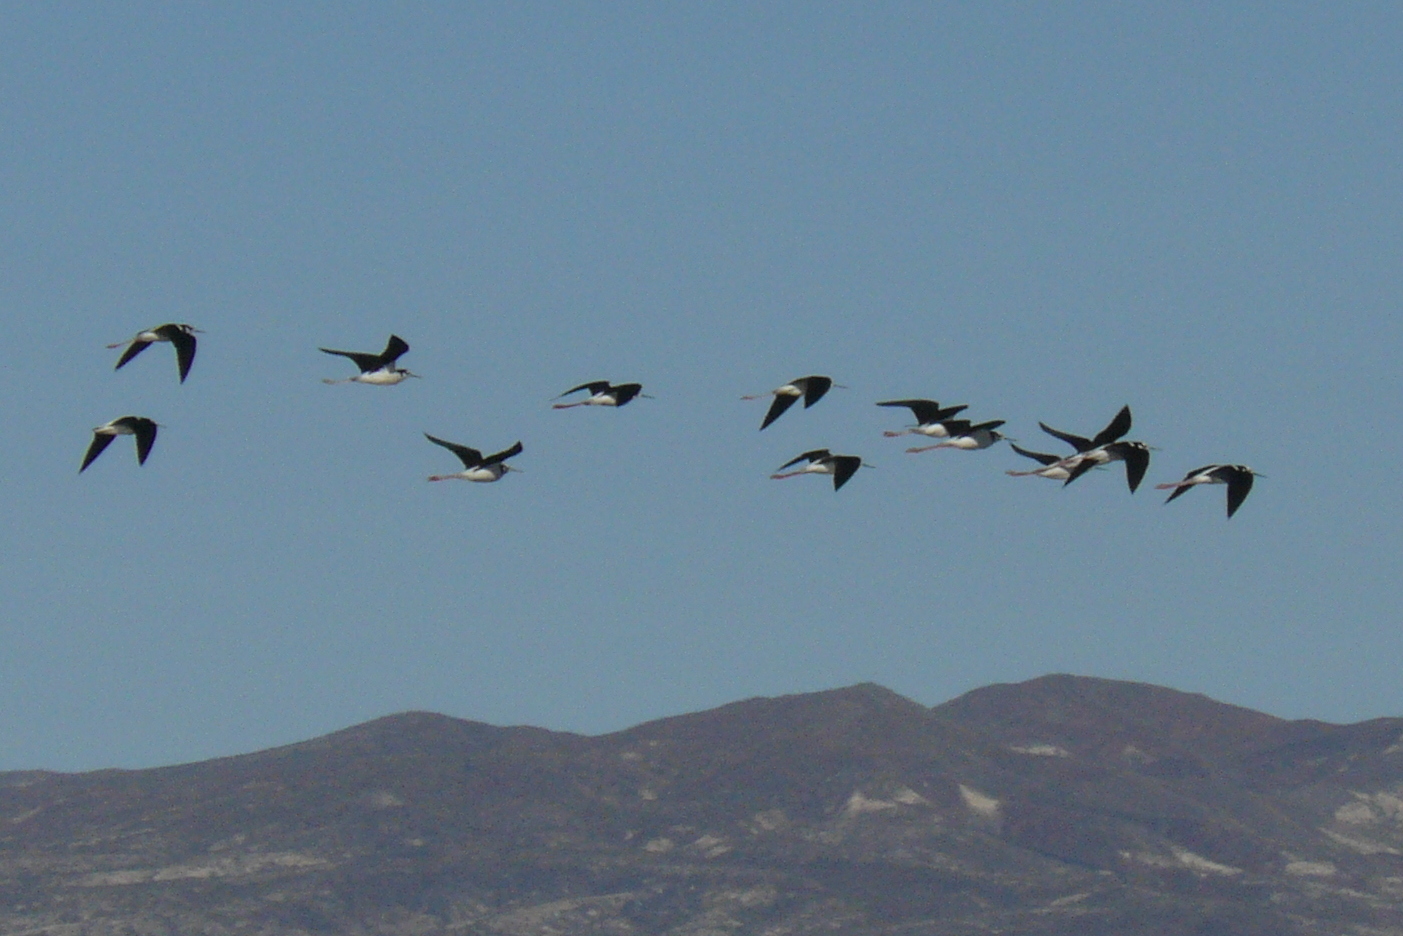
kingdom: Animalia
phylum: Chordata
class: Aves
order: Charadriiformes
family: Recurvirostridae
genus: Himantopus
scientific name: Himantopus mexicanus
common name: Black-necked stilt
